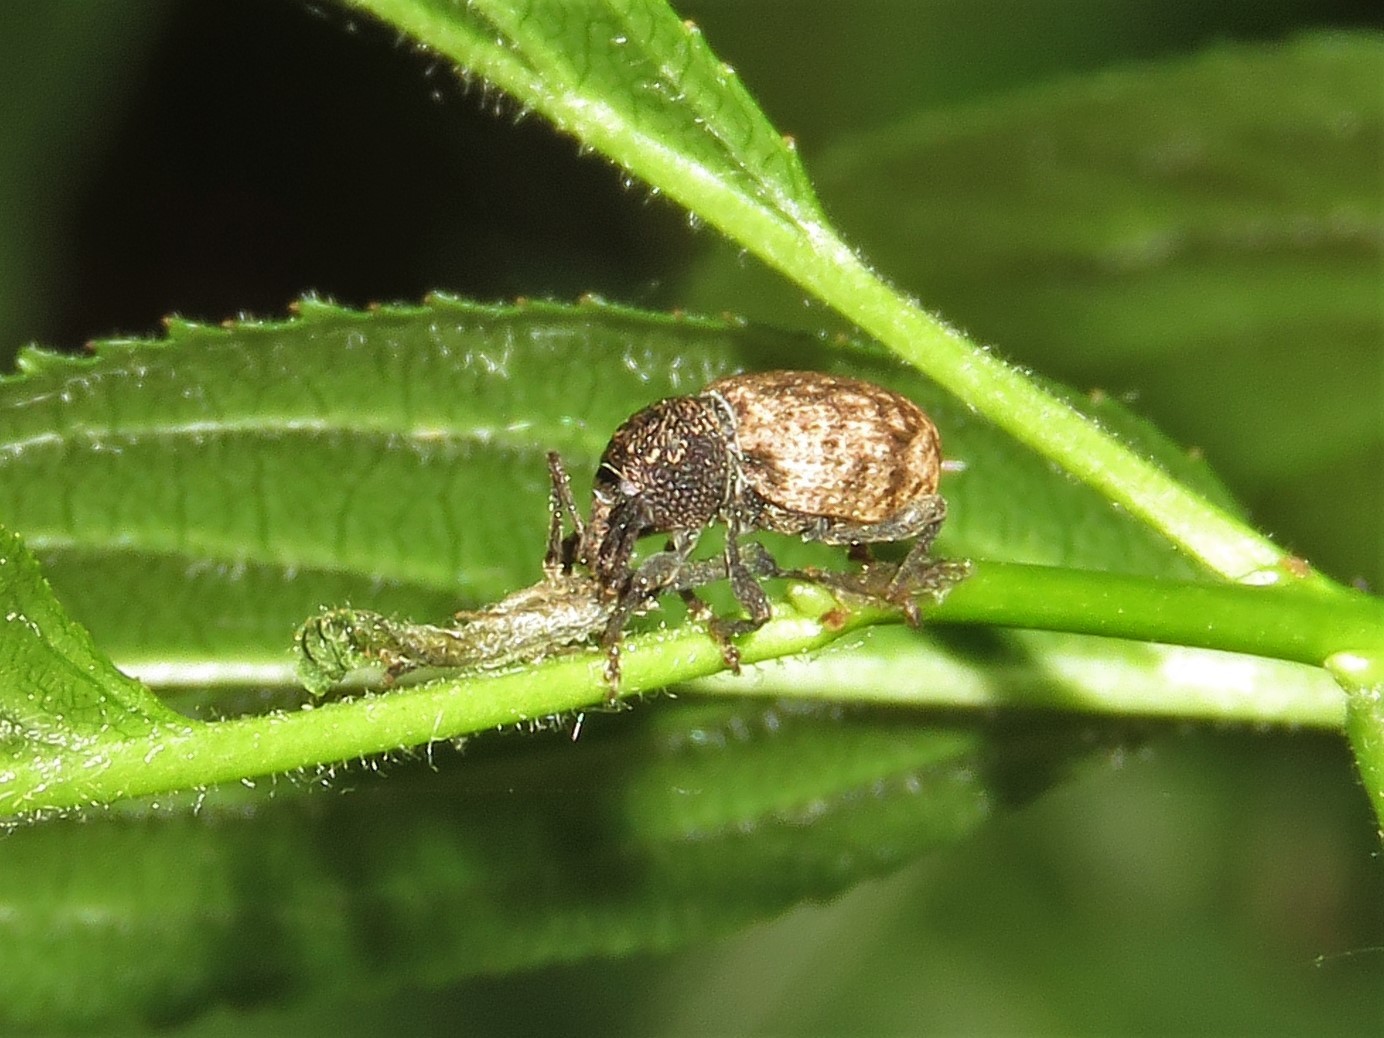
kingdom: Animalia
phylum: Arthropoda
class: Insecta
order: Coleoptera
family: Curculionidae
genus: Otiorhynchus
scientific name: Otiorhynchus raucus
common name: Weevil
